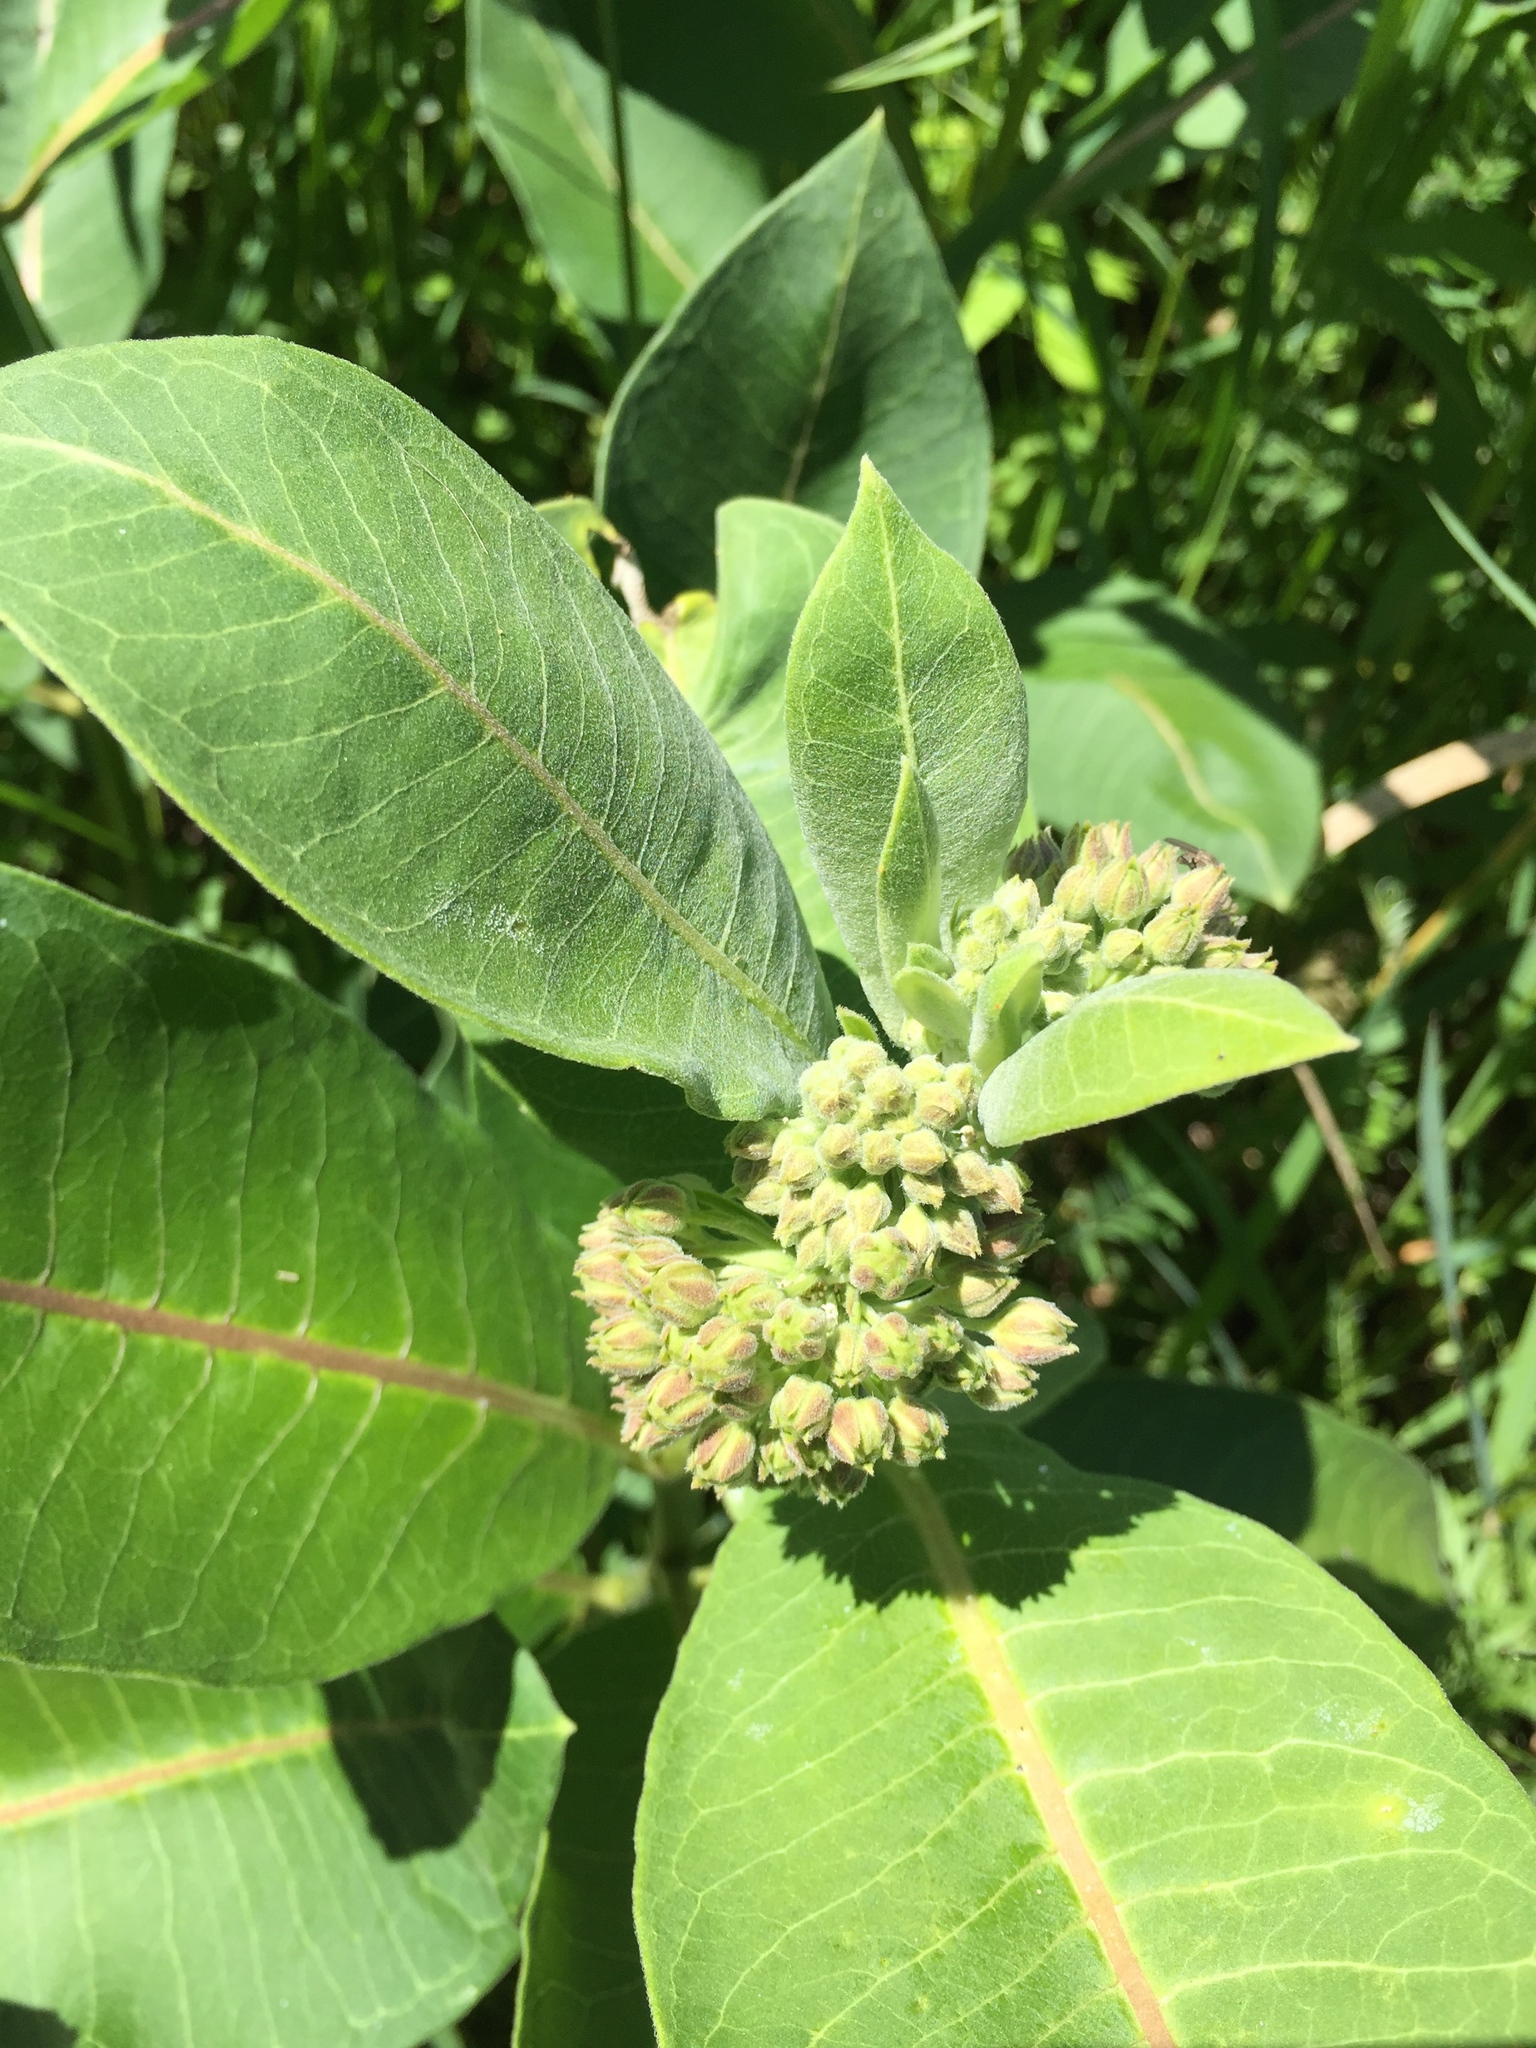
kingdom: Plantae
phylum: Tracheophyta
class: Magnoliopsida
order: Gentianales
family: Apocynaceae
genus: Asclepias
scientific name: Asclepias syriaca
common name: Common milkweed
